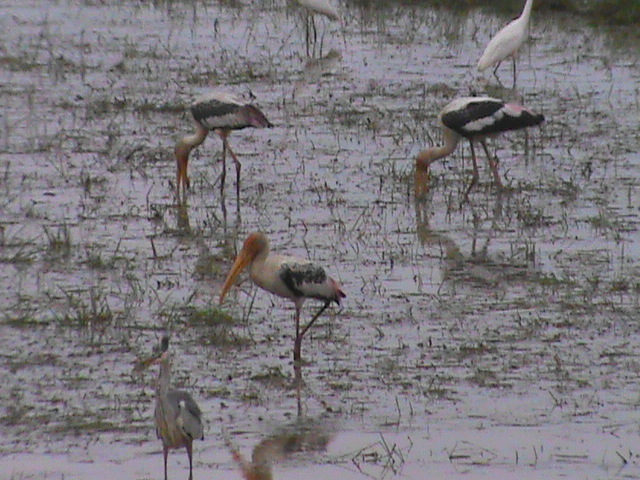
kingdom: Animalia
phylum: Chordata
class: Aves
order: Ciconiiformes
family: Ciconiidae
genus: Mycteria
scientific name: Mycteria leucocephala
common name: Painted stork
